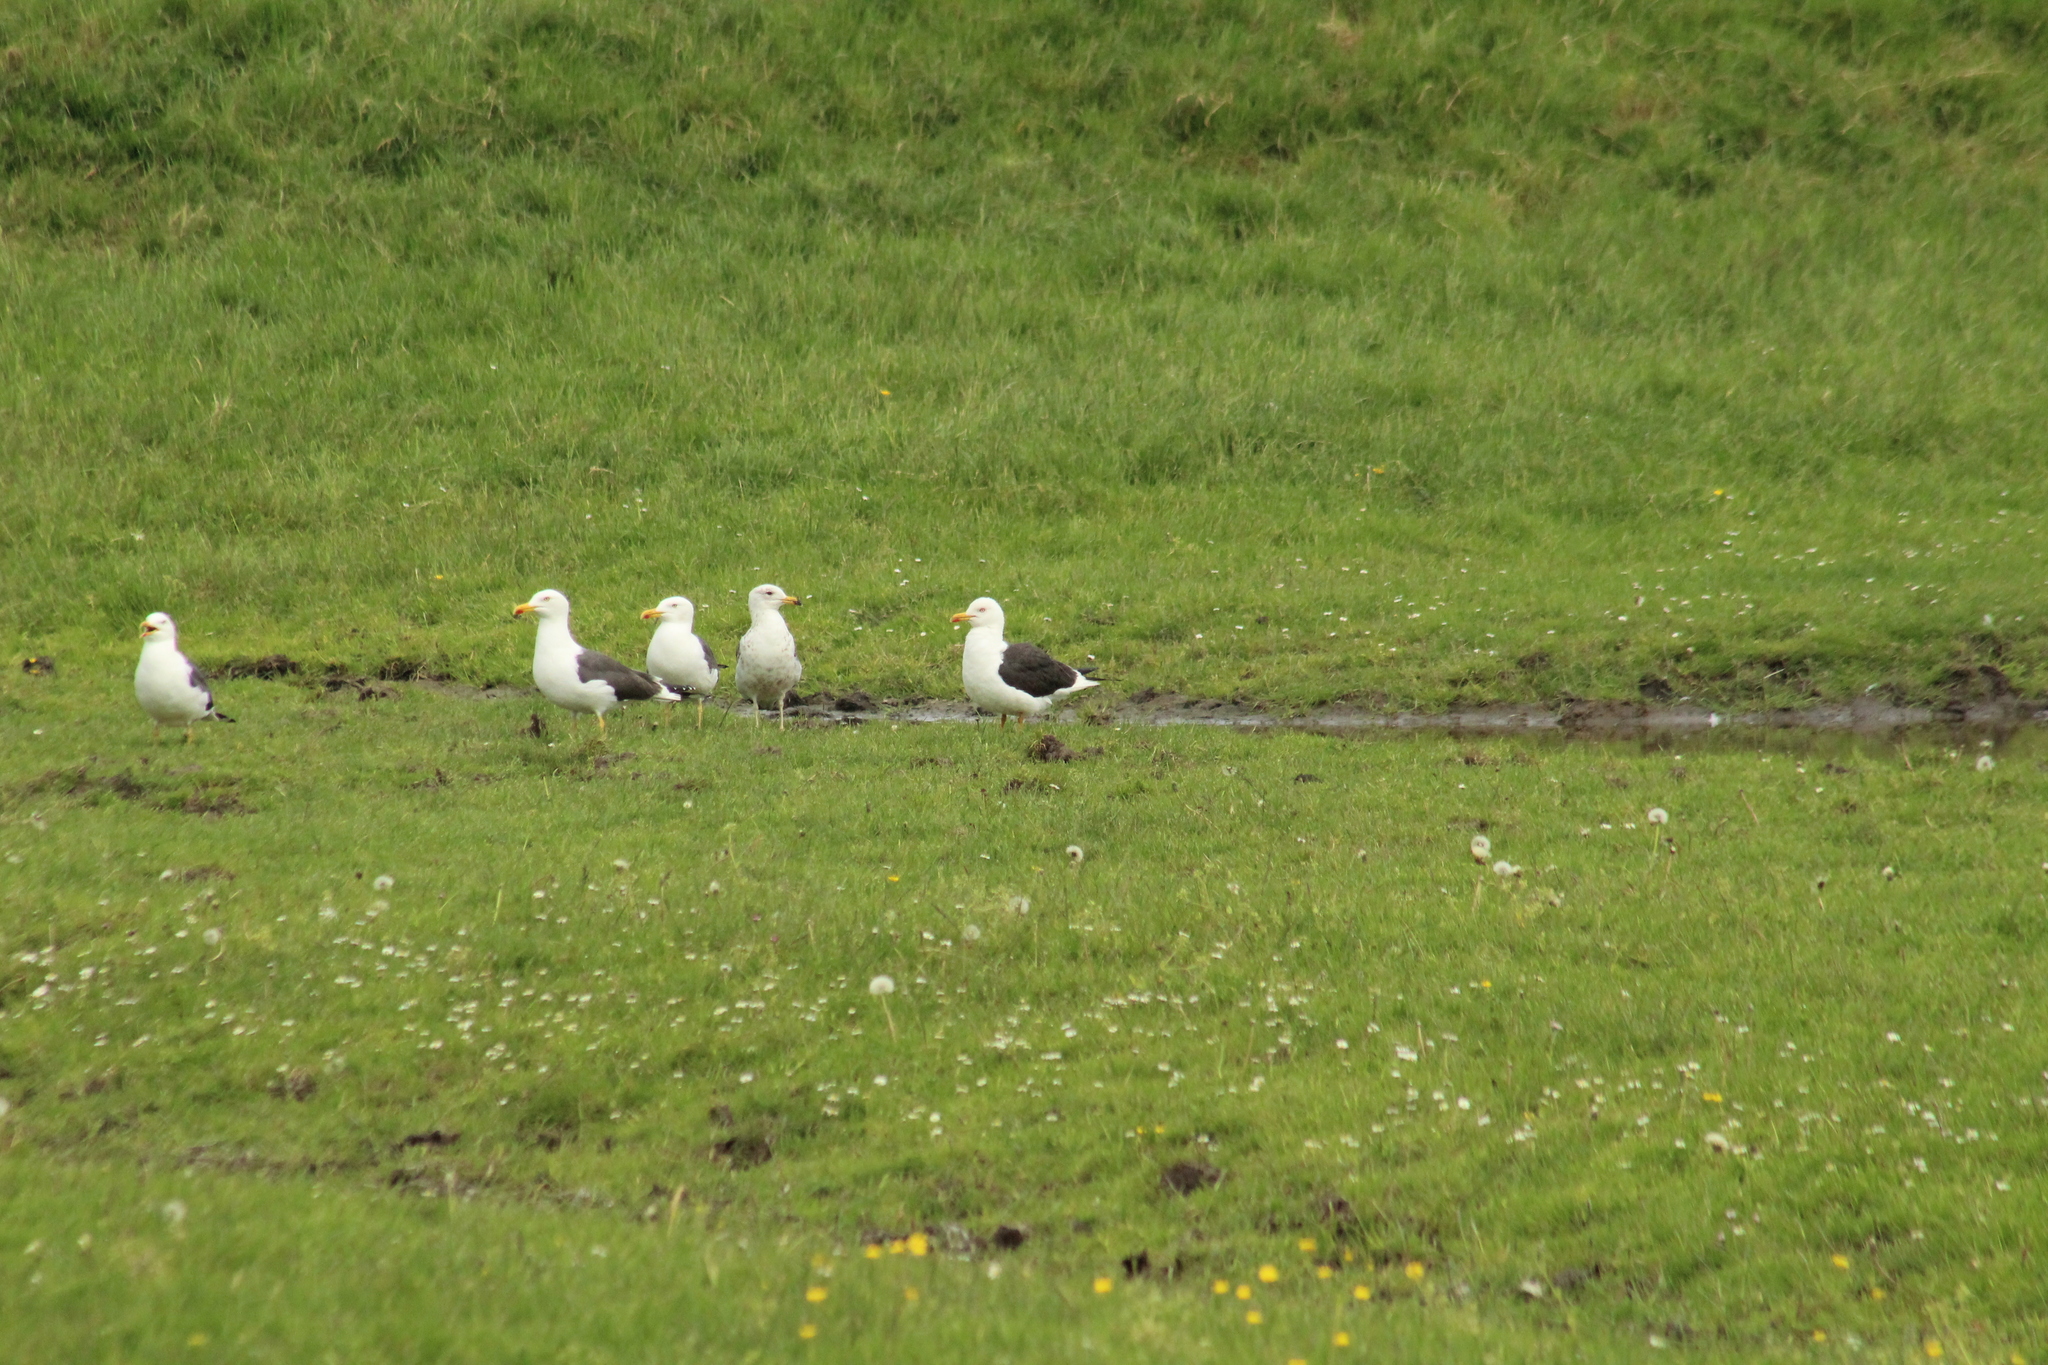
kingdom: Animalia
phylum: Chordata
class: Aves
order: Charadriiformes
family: Laridae
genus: Larus
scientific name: Larus fuscus
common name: Lesser black-backed gull
